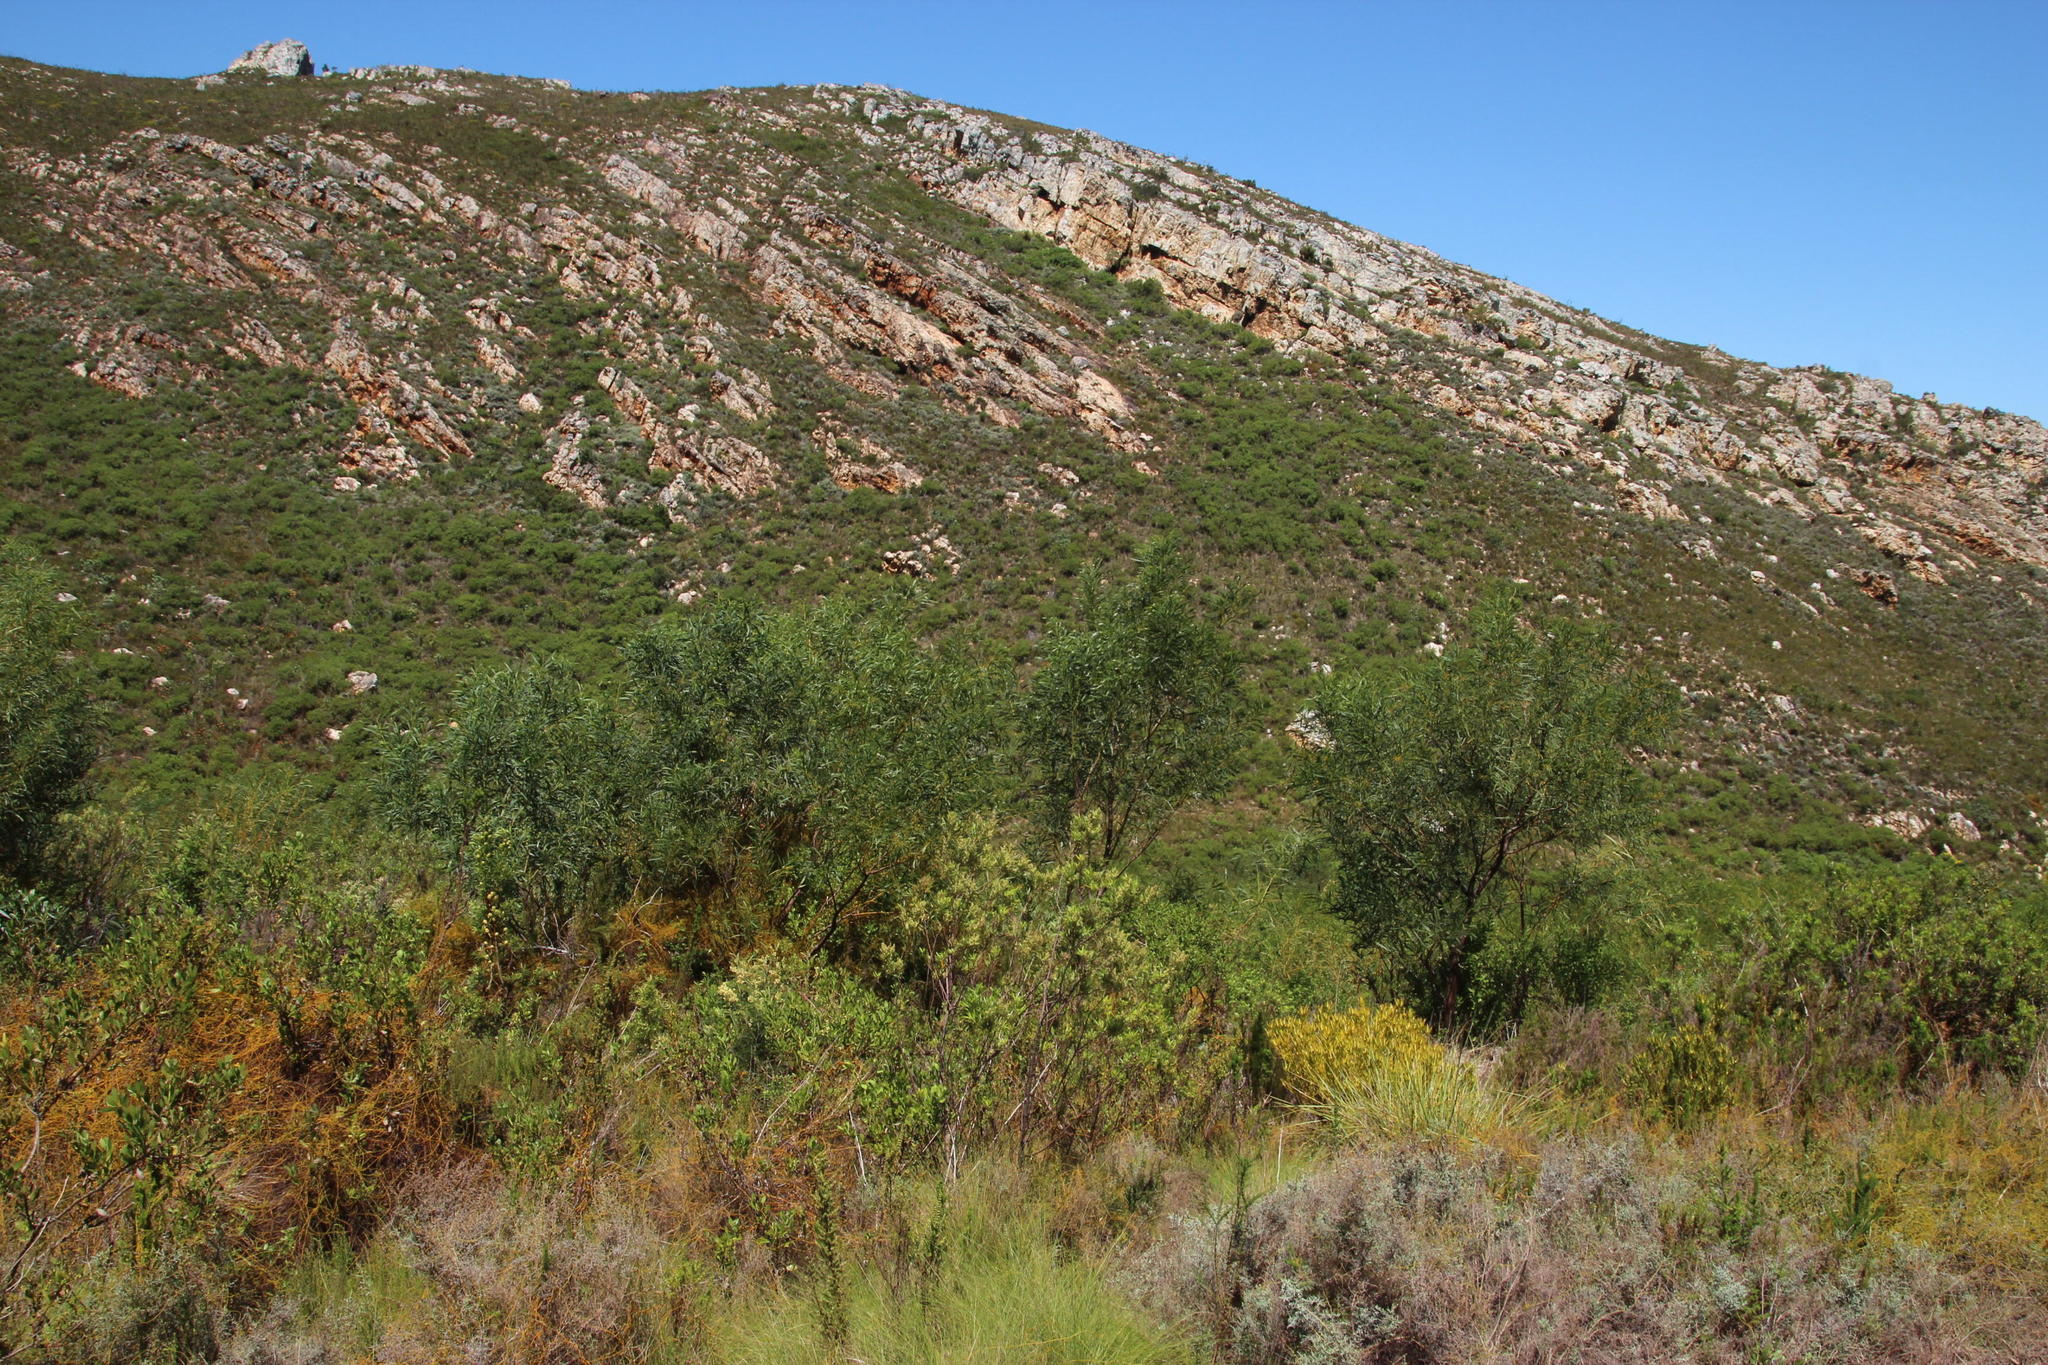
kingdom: Plantae
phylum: Tracheophyta
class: Magnoliopsida
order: Fabales
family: Fabaceae
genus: Acacia
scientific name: Acacia saligna
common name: Orange wattle
